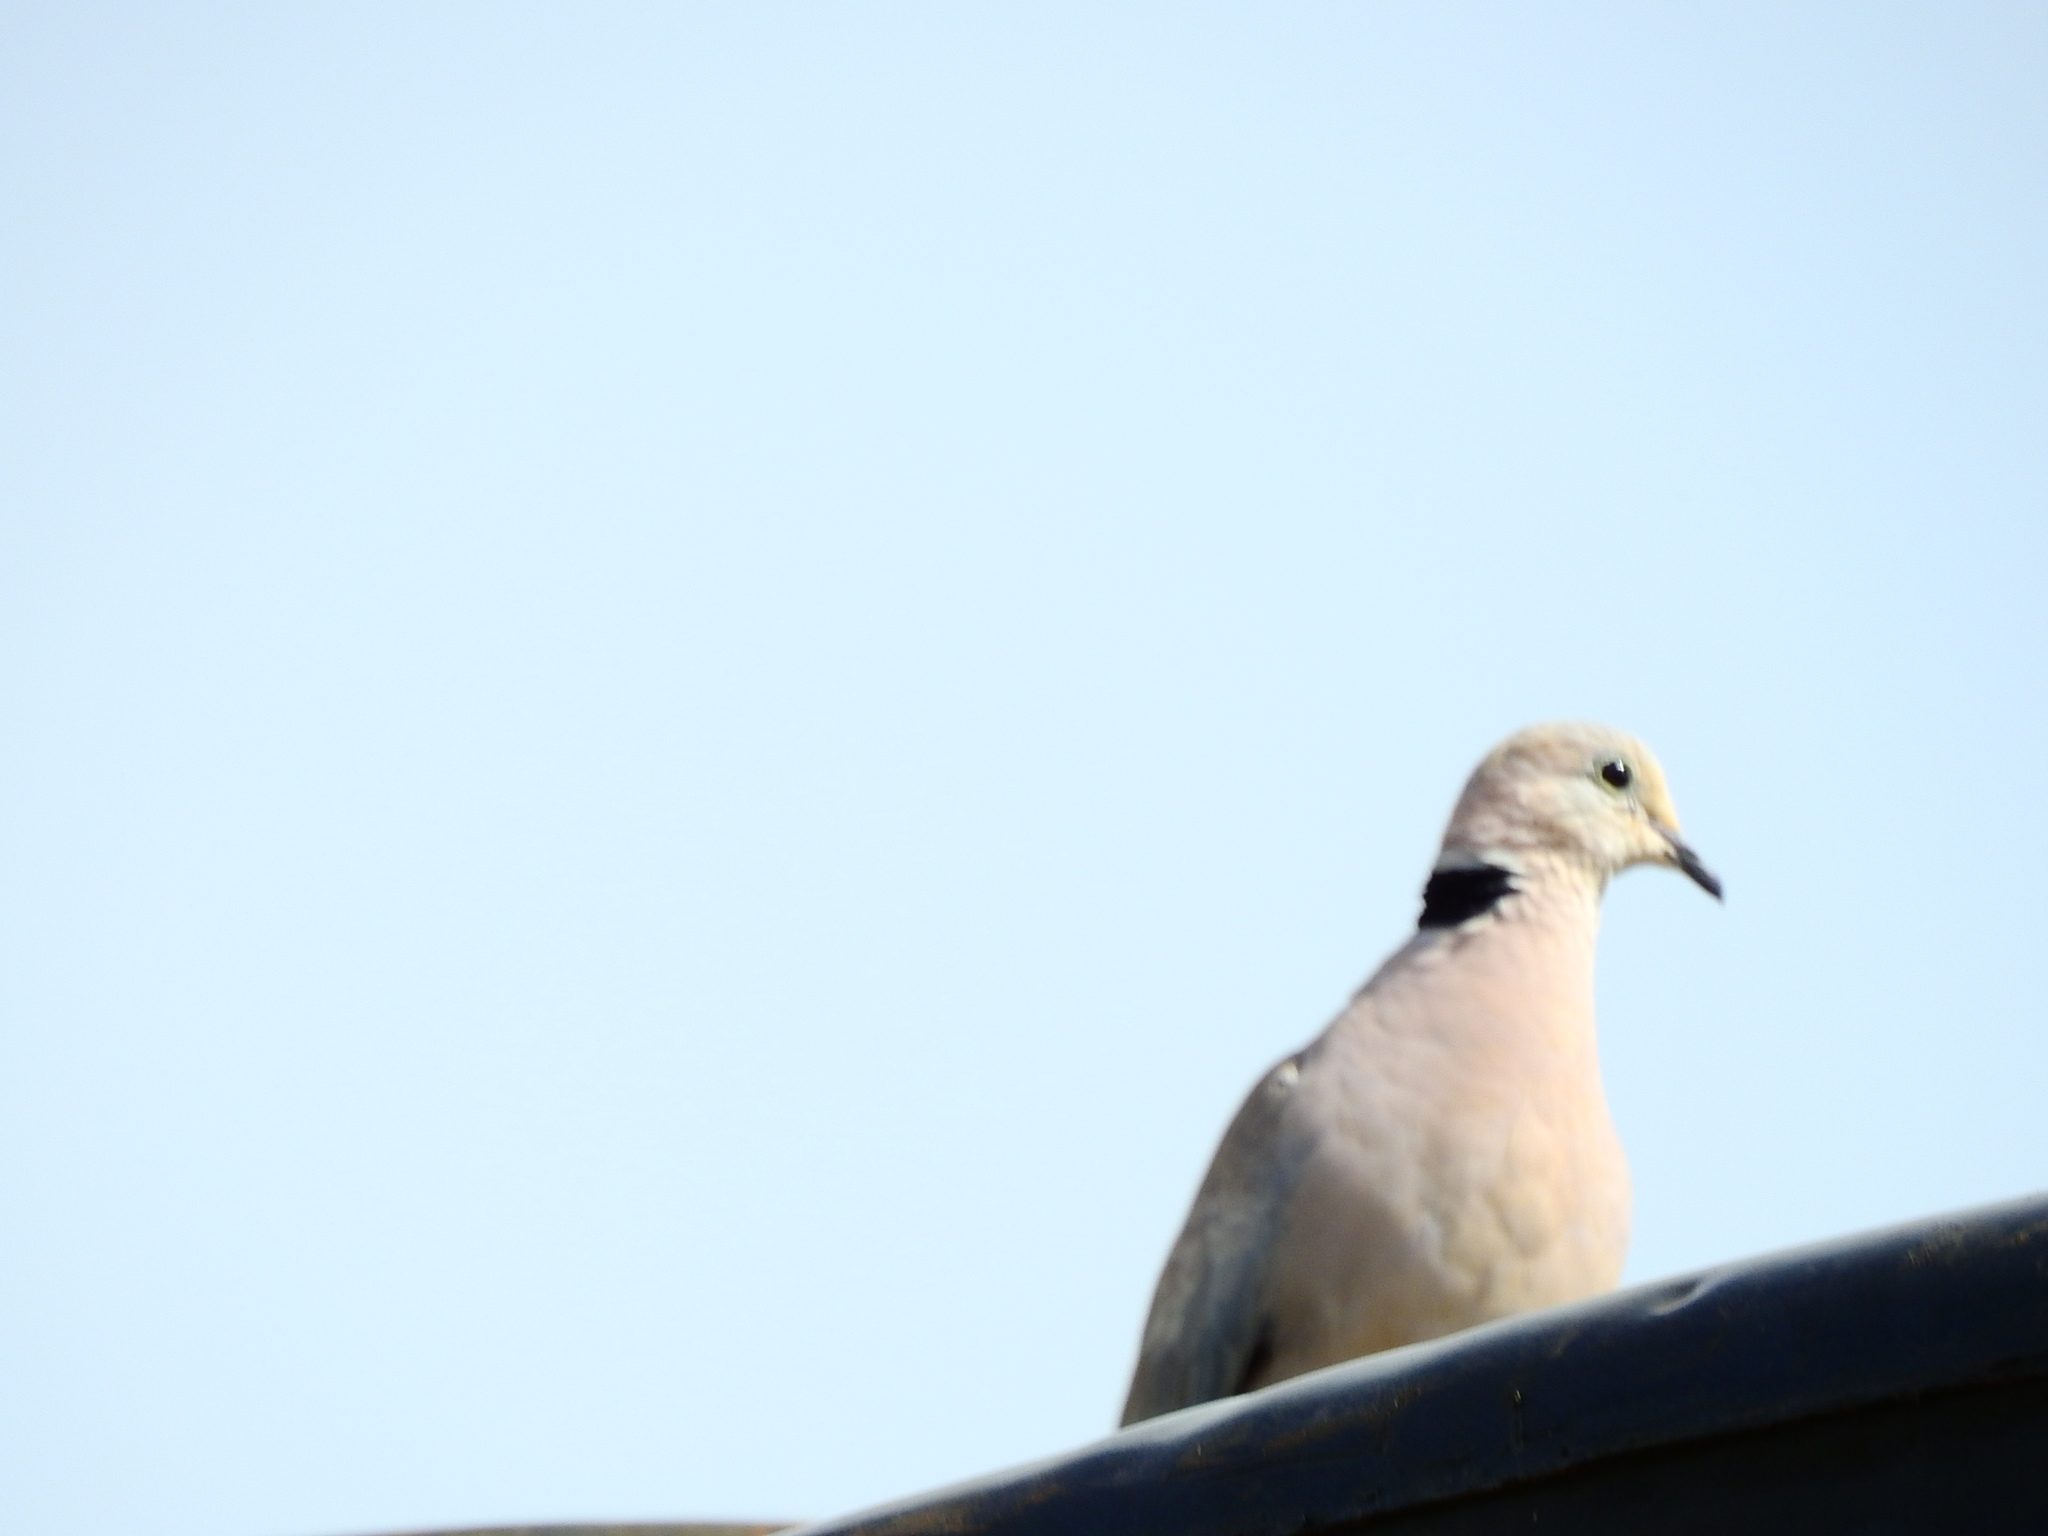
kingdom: Animalia
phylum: Chordata
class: Aves
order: Columbiformes
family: Columbidae
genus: Streptopelia
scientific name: Streptopelia capicola
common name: Ring-necked dove
